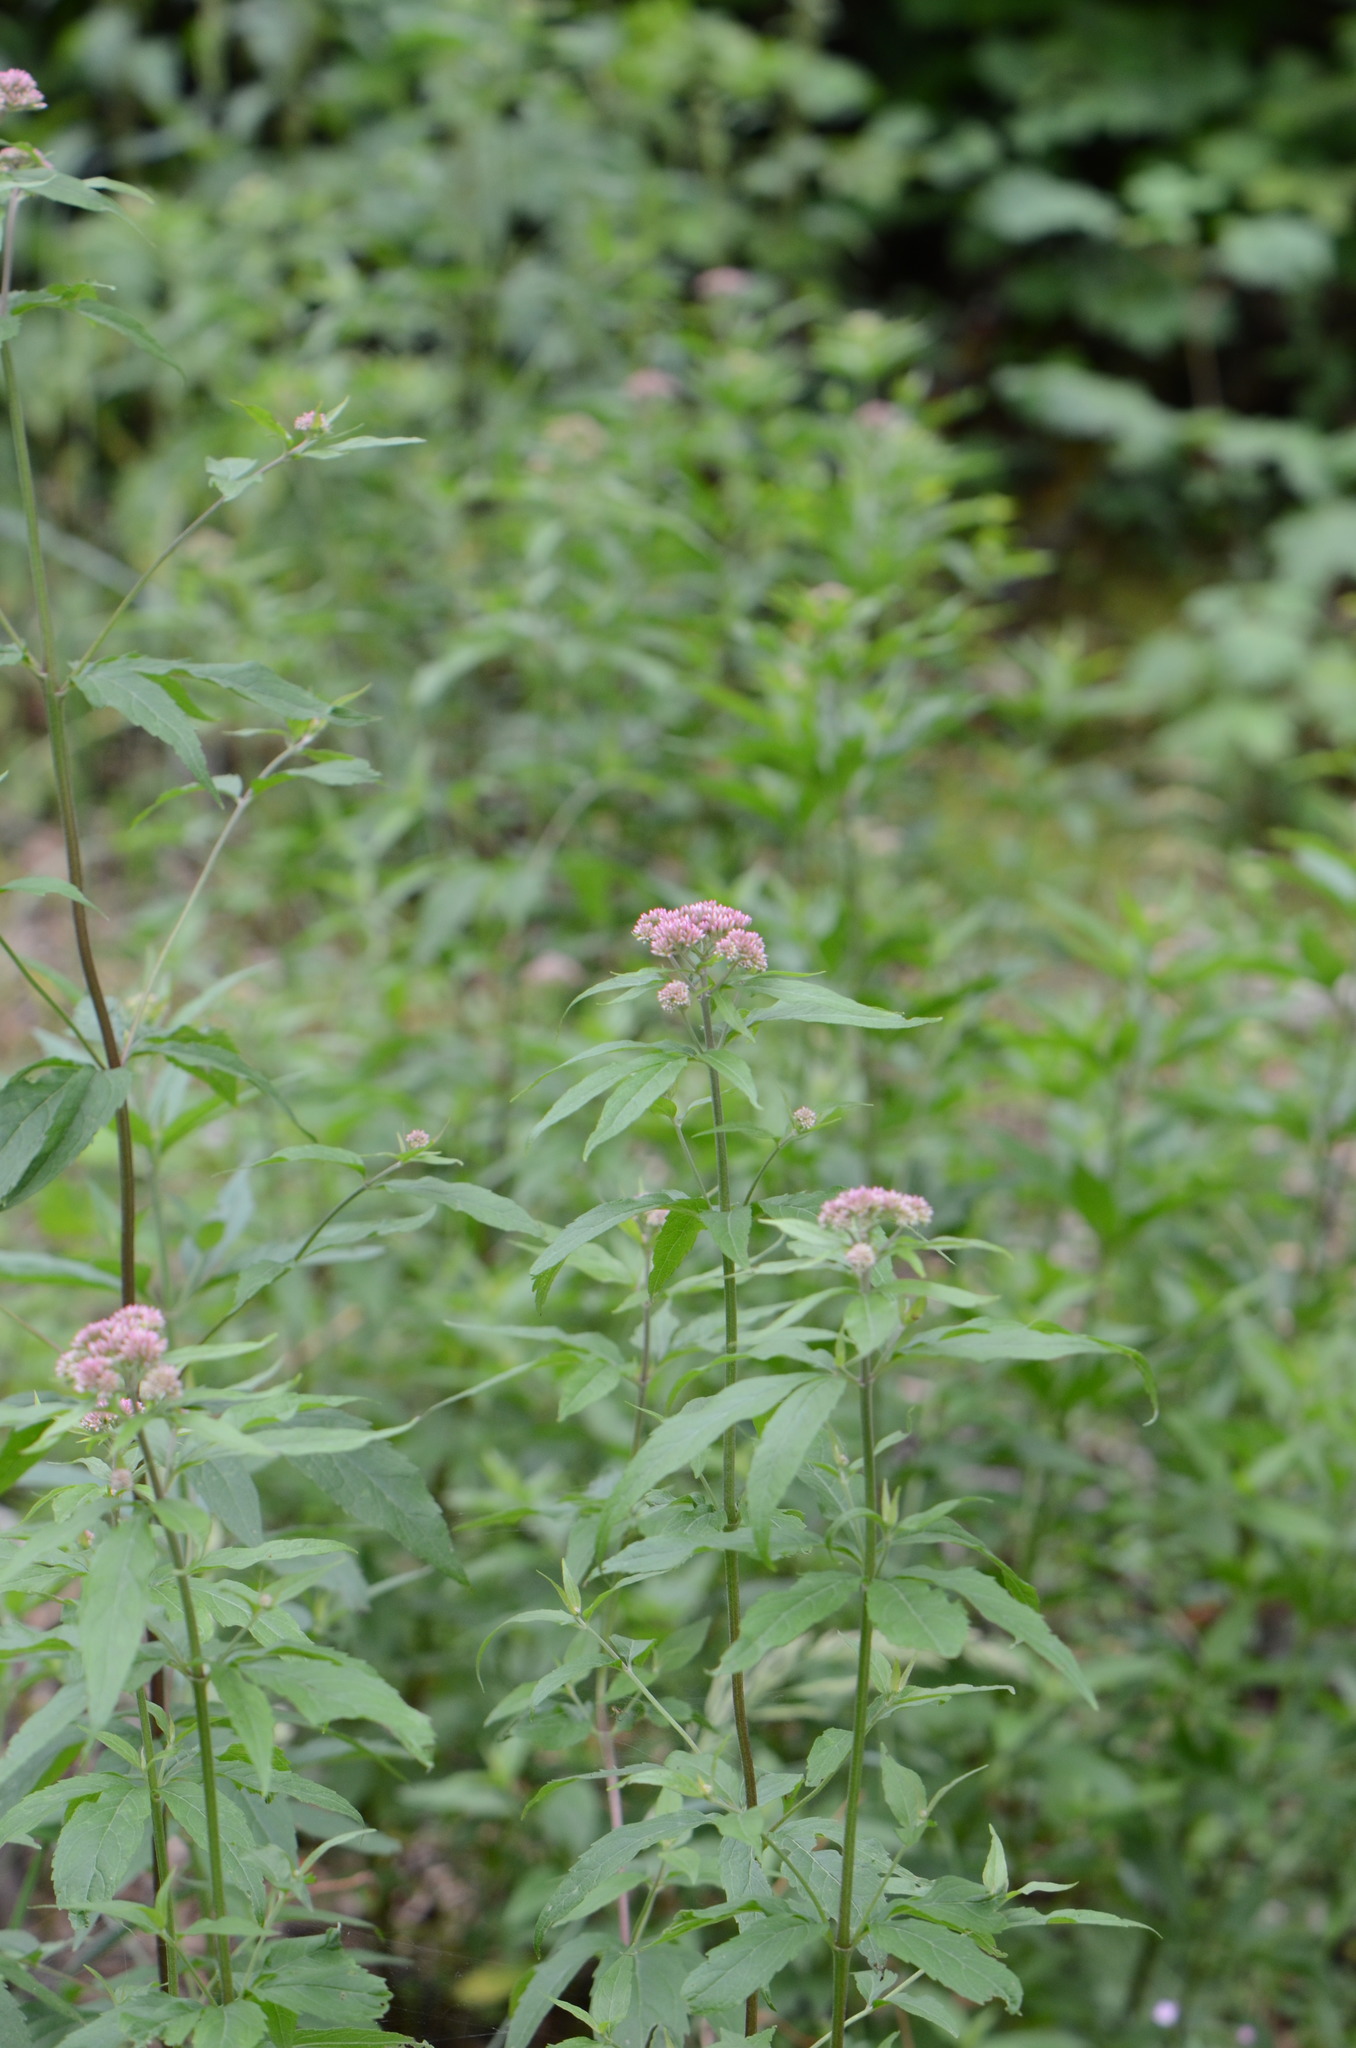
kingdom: Plantae
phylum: Tracheophyta
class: Magnoliopsida
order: Asterales
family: Asteraceae
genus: Eupatorium
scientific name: Eupatorium cannabinum
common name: Hemp-agrimony
